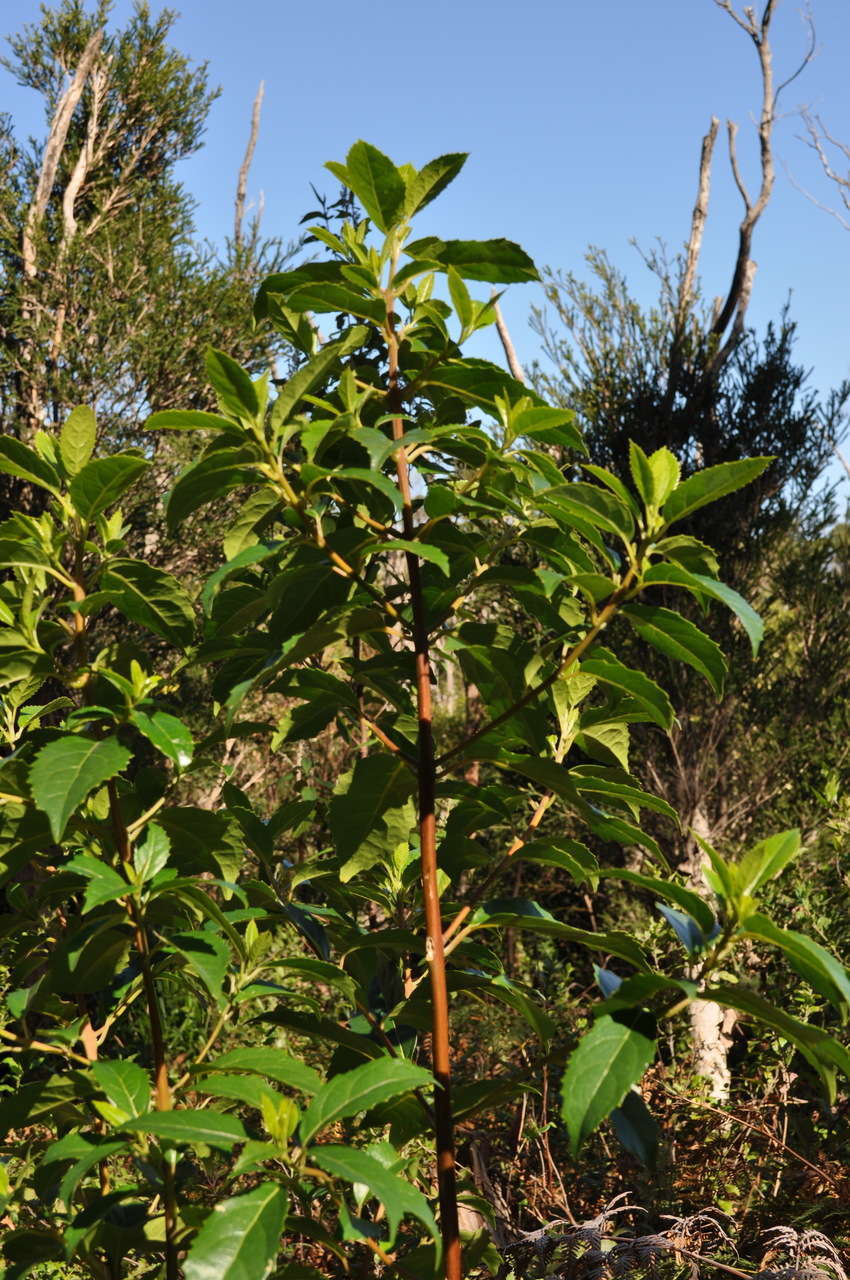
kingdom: Plantae
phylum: Tracheophyta
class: Magnoliopsida
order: Laurales
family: Monimiaceae
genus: Hedycarya
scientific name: Hedycarya angustifolia
